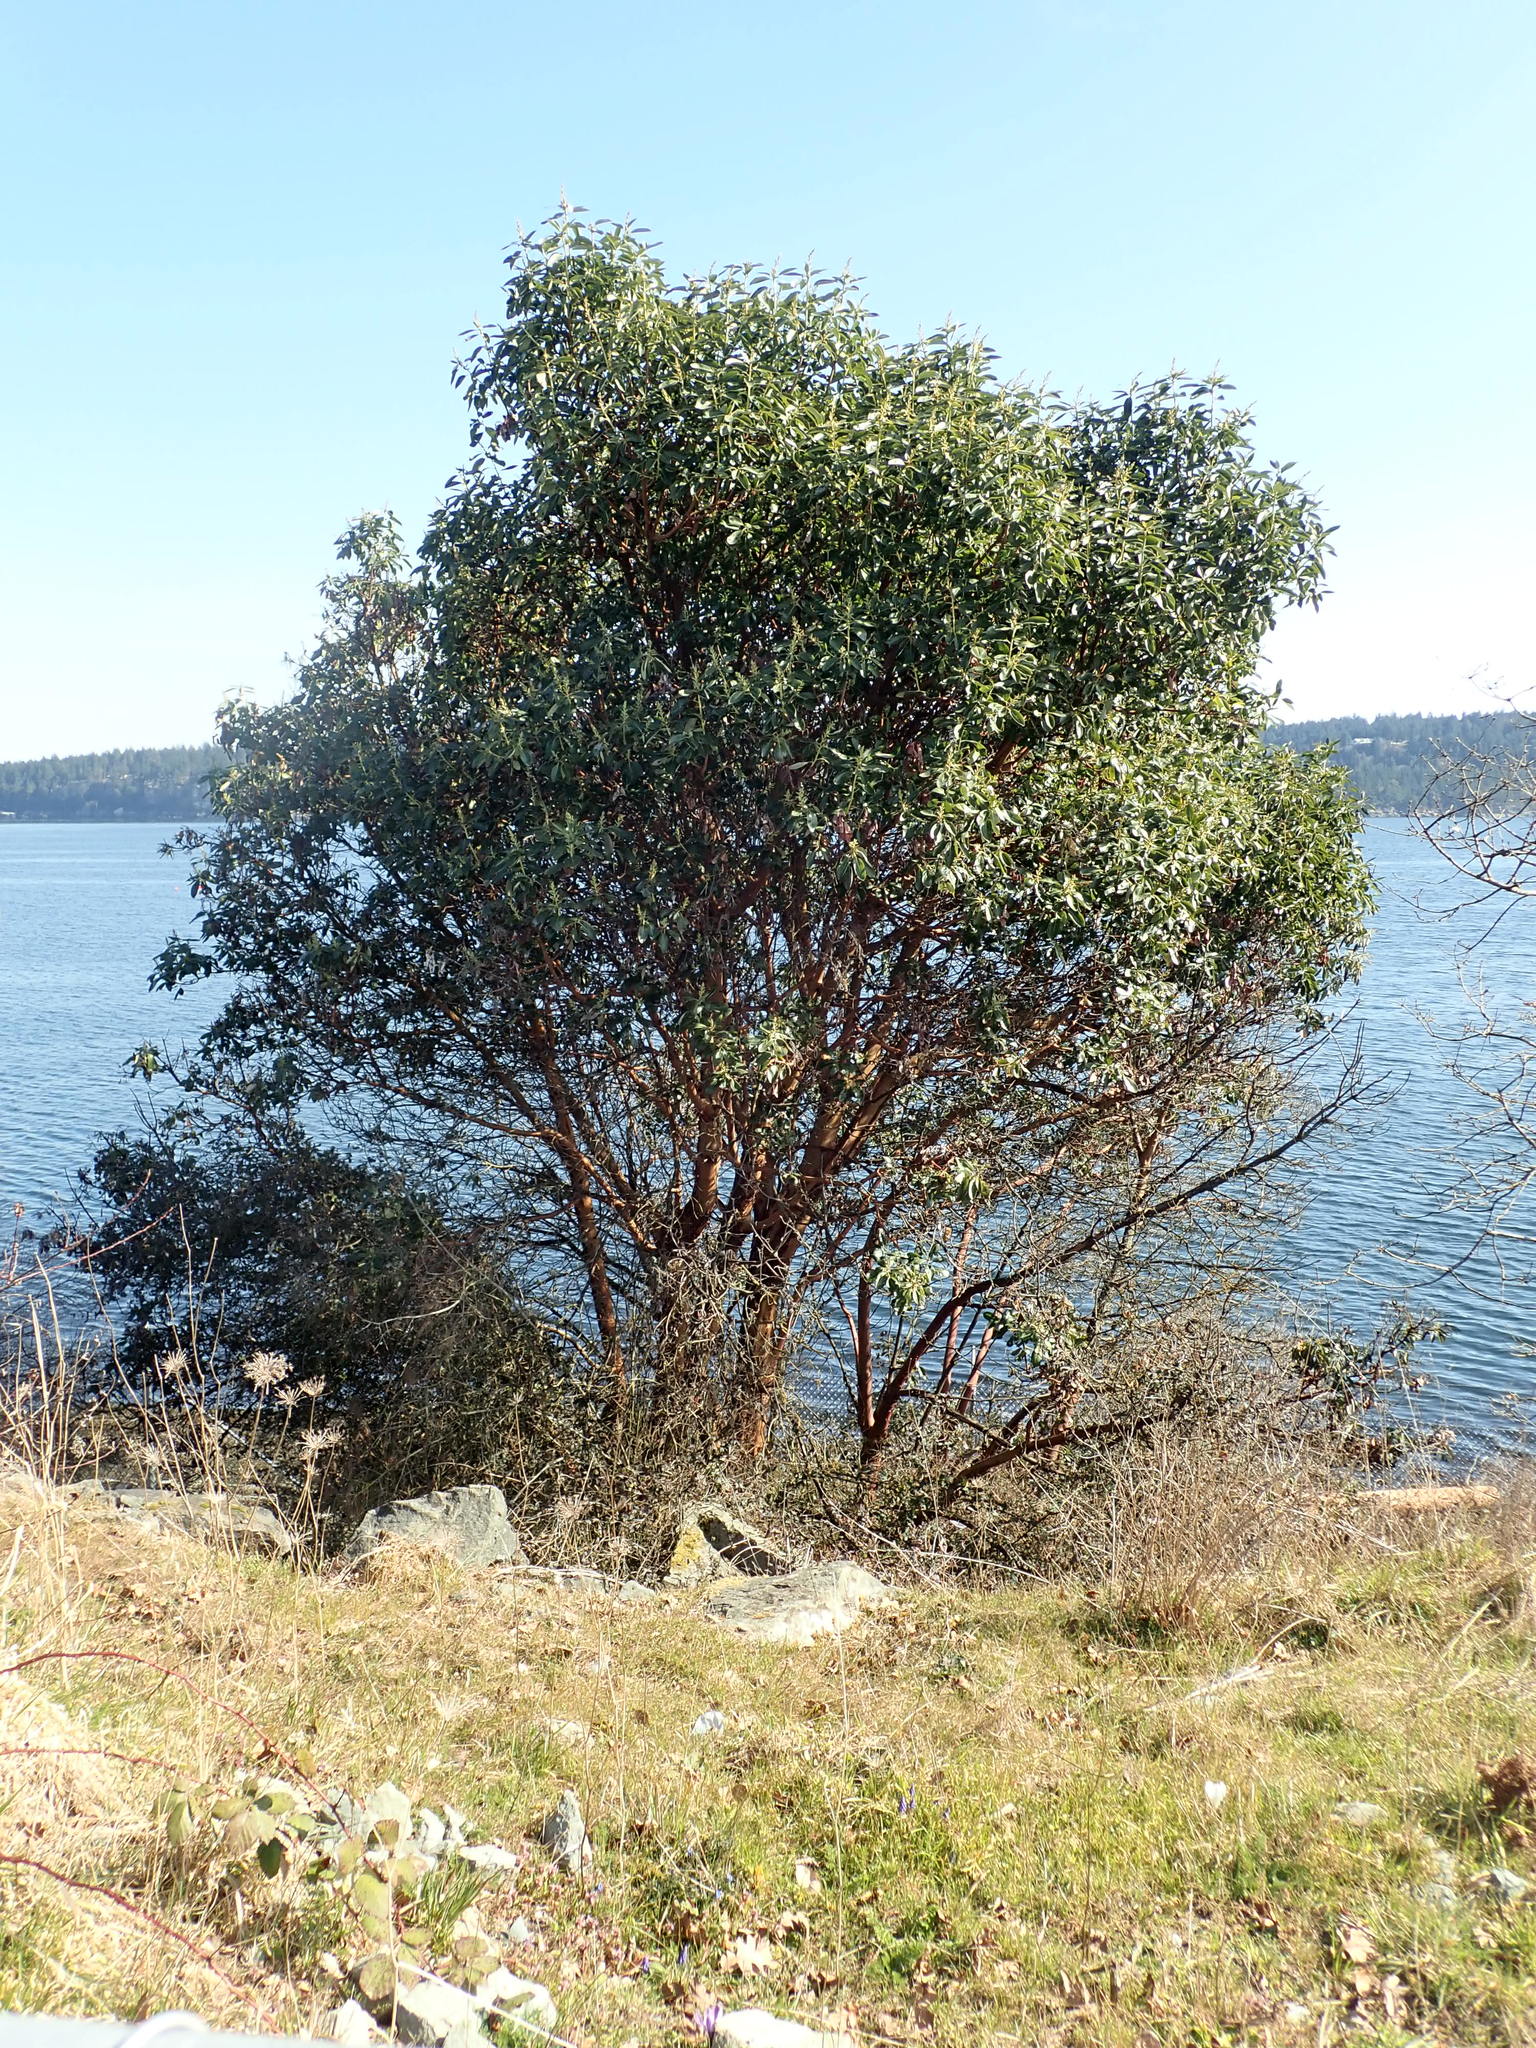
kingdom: Plantae
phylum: Tracheophyta
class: Magnoliopsida
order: Ericales
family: Ericaceae
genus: Arbutus
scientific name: Arbutus menziesii
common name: Pacific madrone
